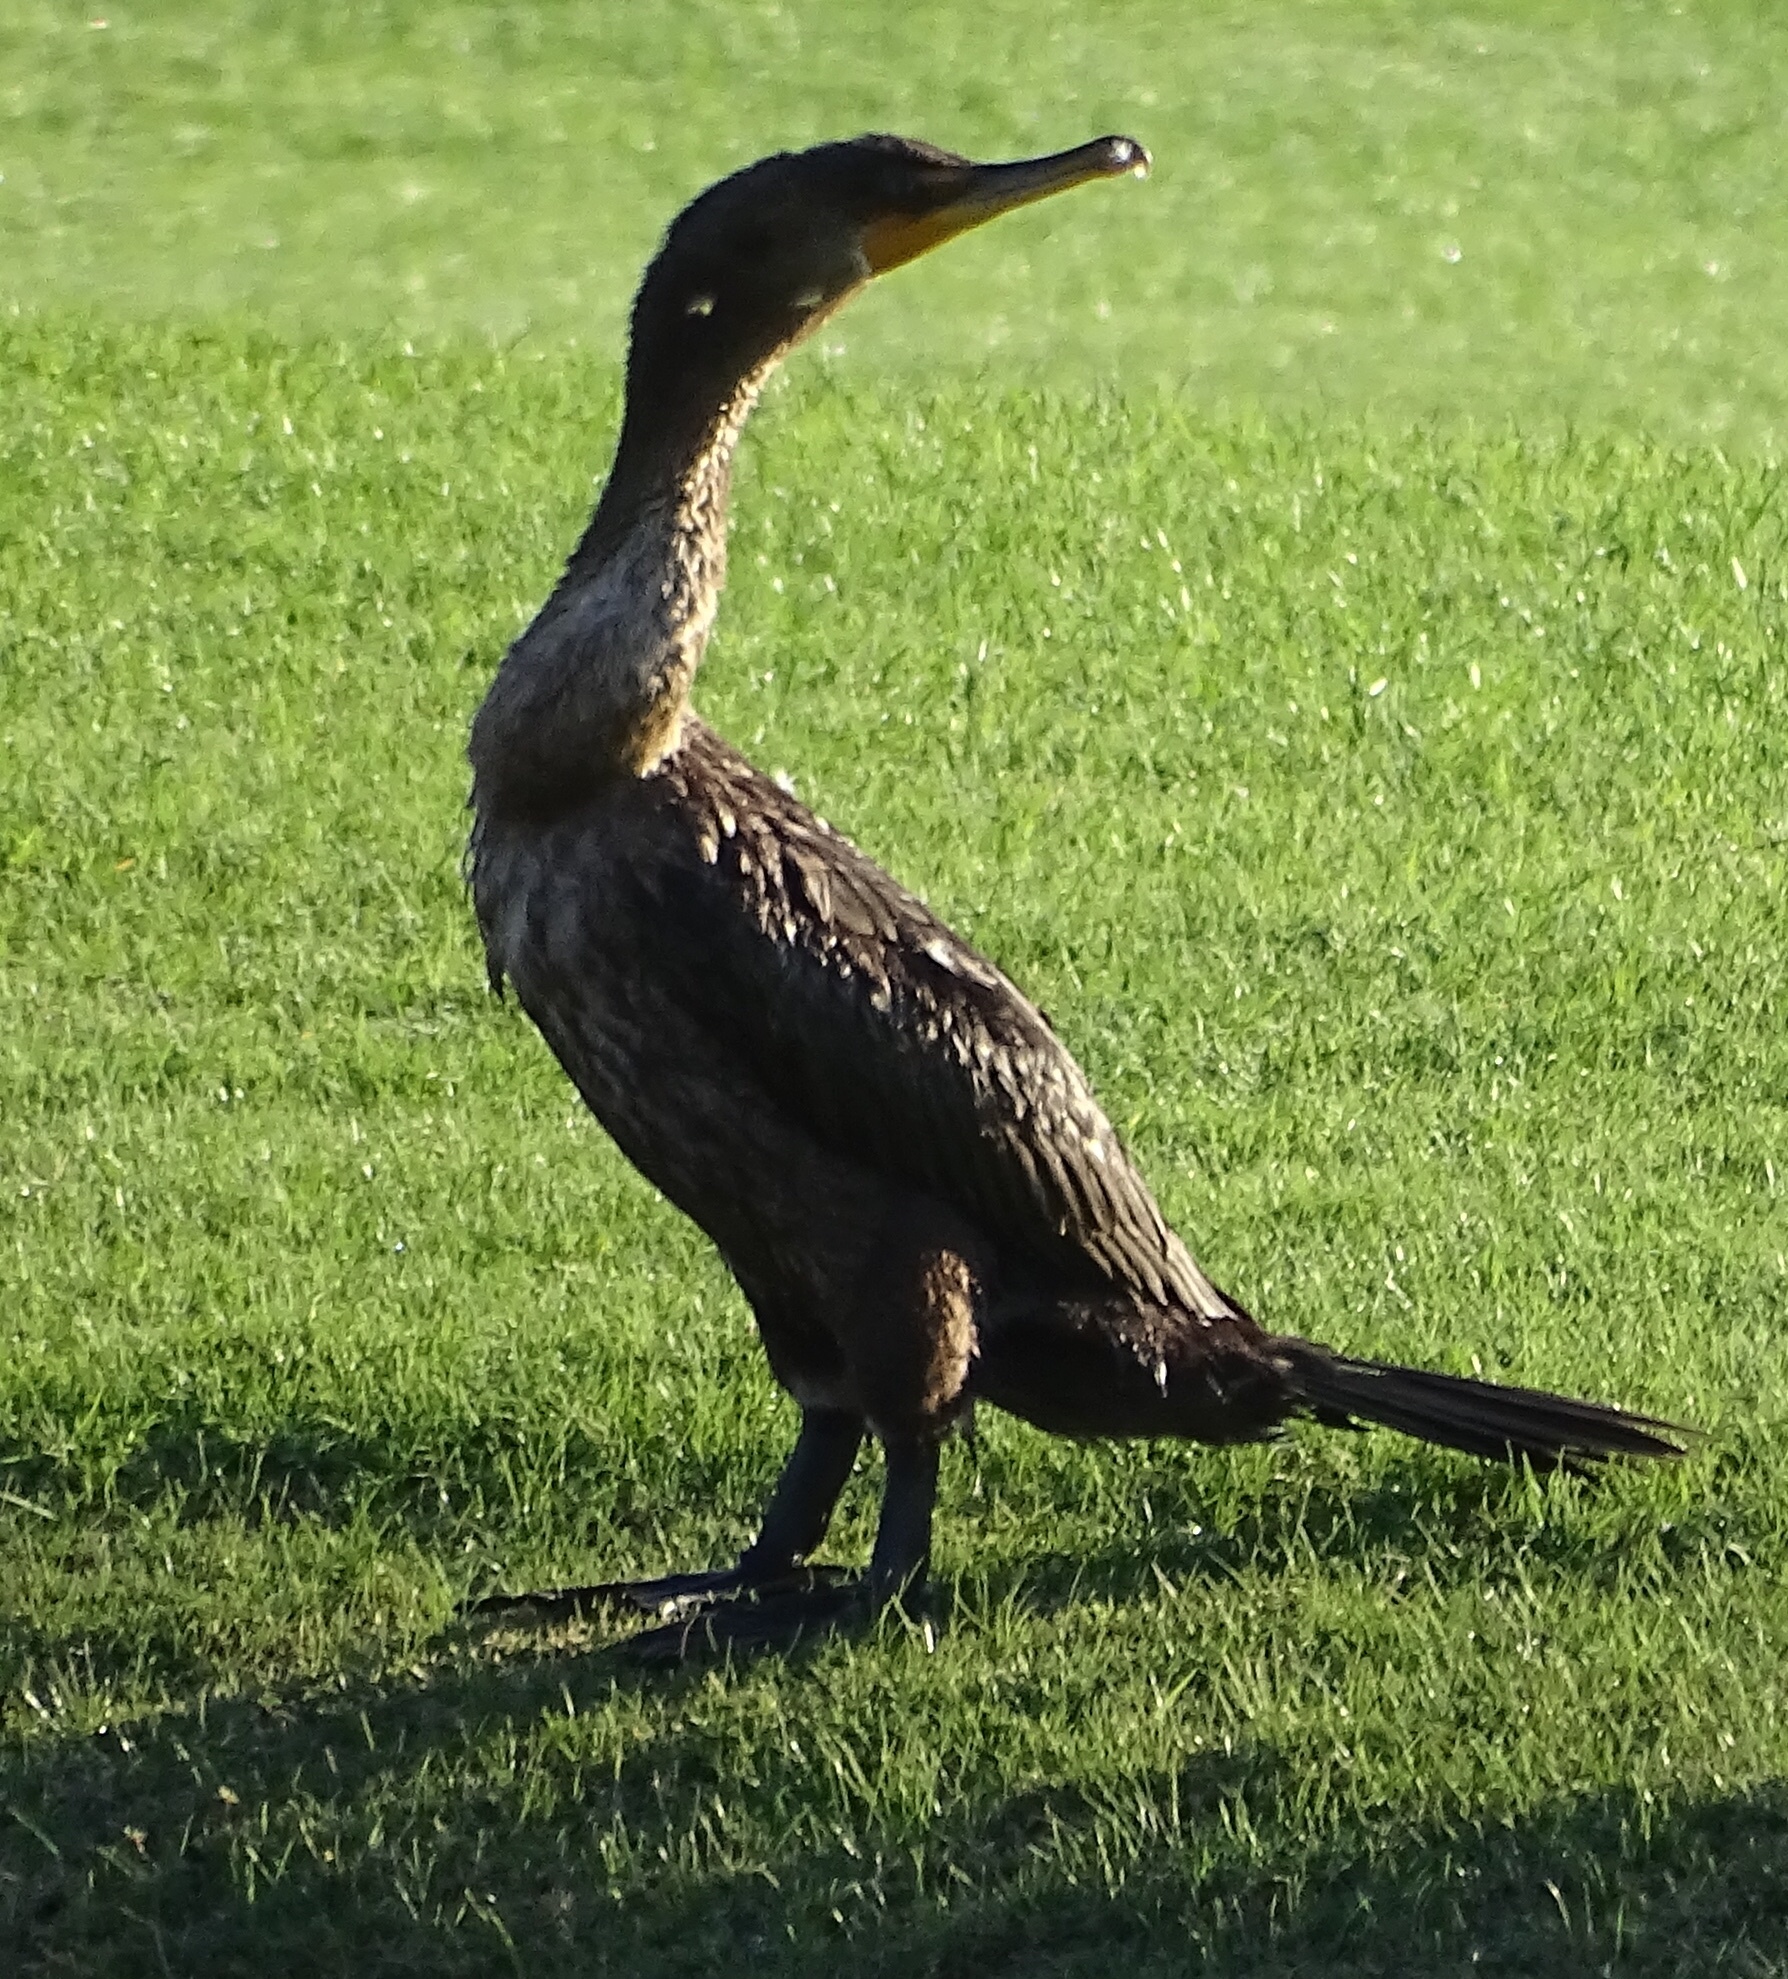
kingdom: Animalia
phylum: Chordata
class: Aves
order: Suliformes
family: Phalacrocoracidae
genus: Phalacrocorax
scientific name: Phalacrocorax auritus
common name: Double-crested cormorant
